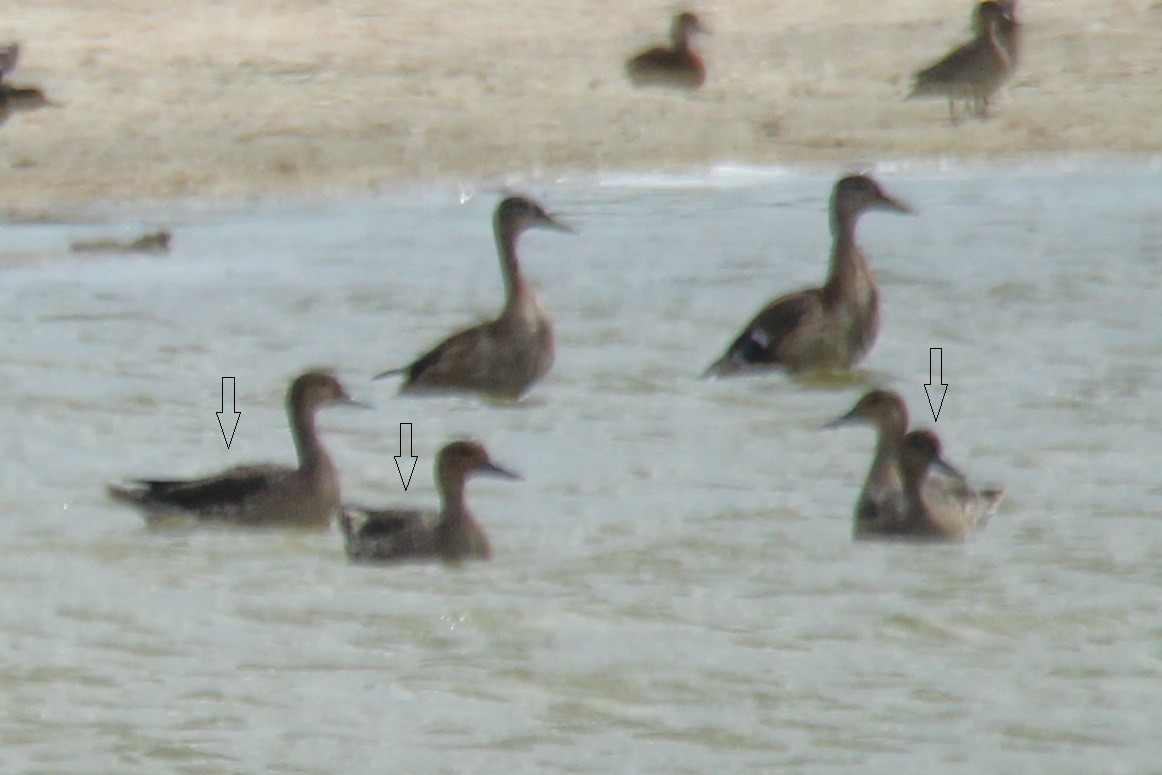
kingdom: Animalia
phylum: Chordata
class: Aves
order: Anseriformes
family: Anatidae
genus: Anas
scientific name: Anas acuta
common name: Northern pintail
